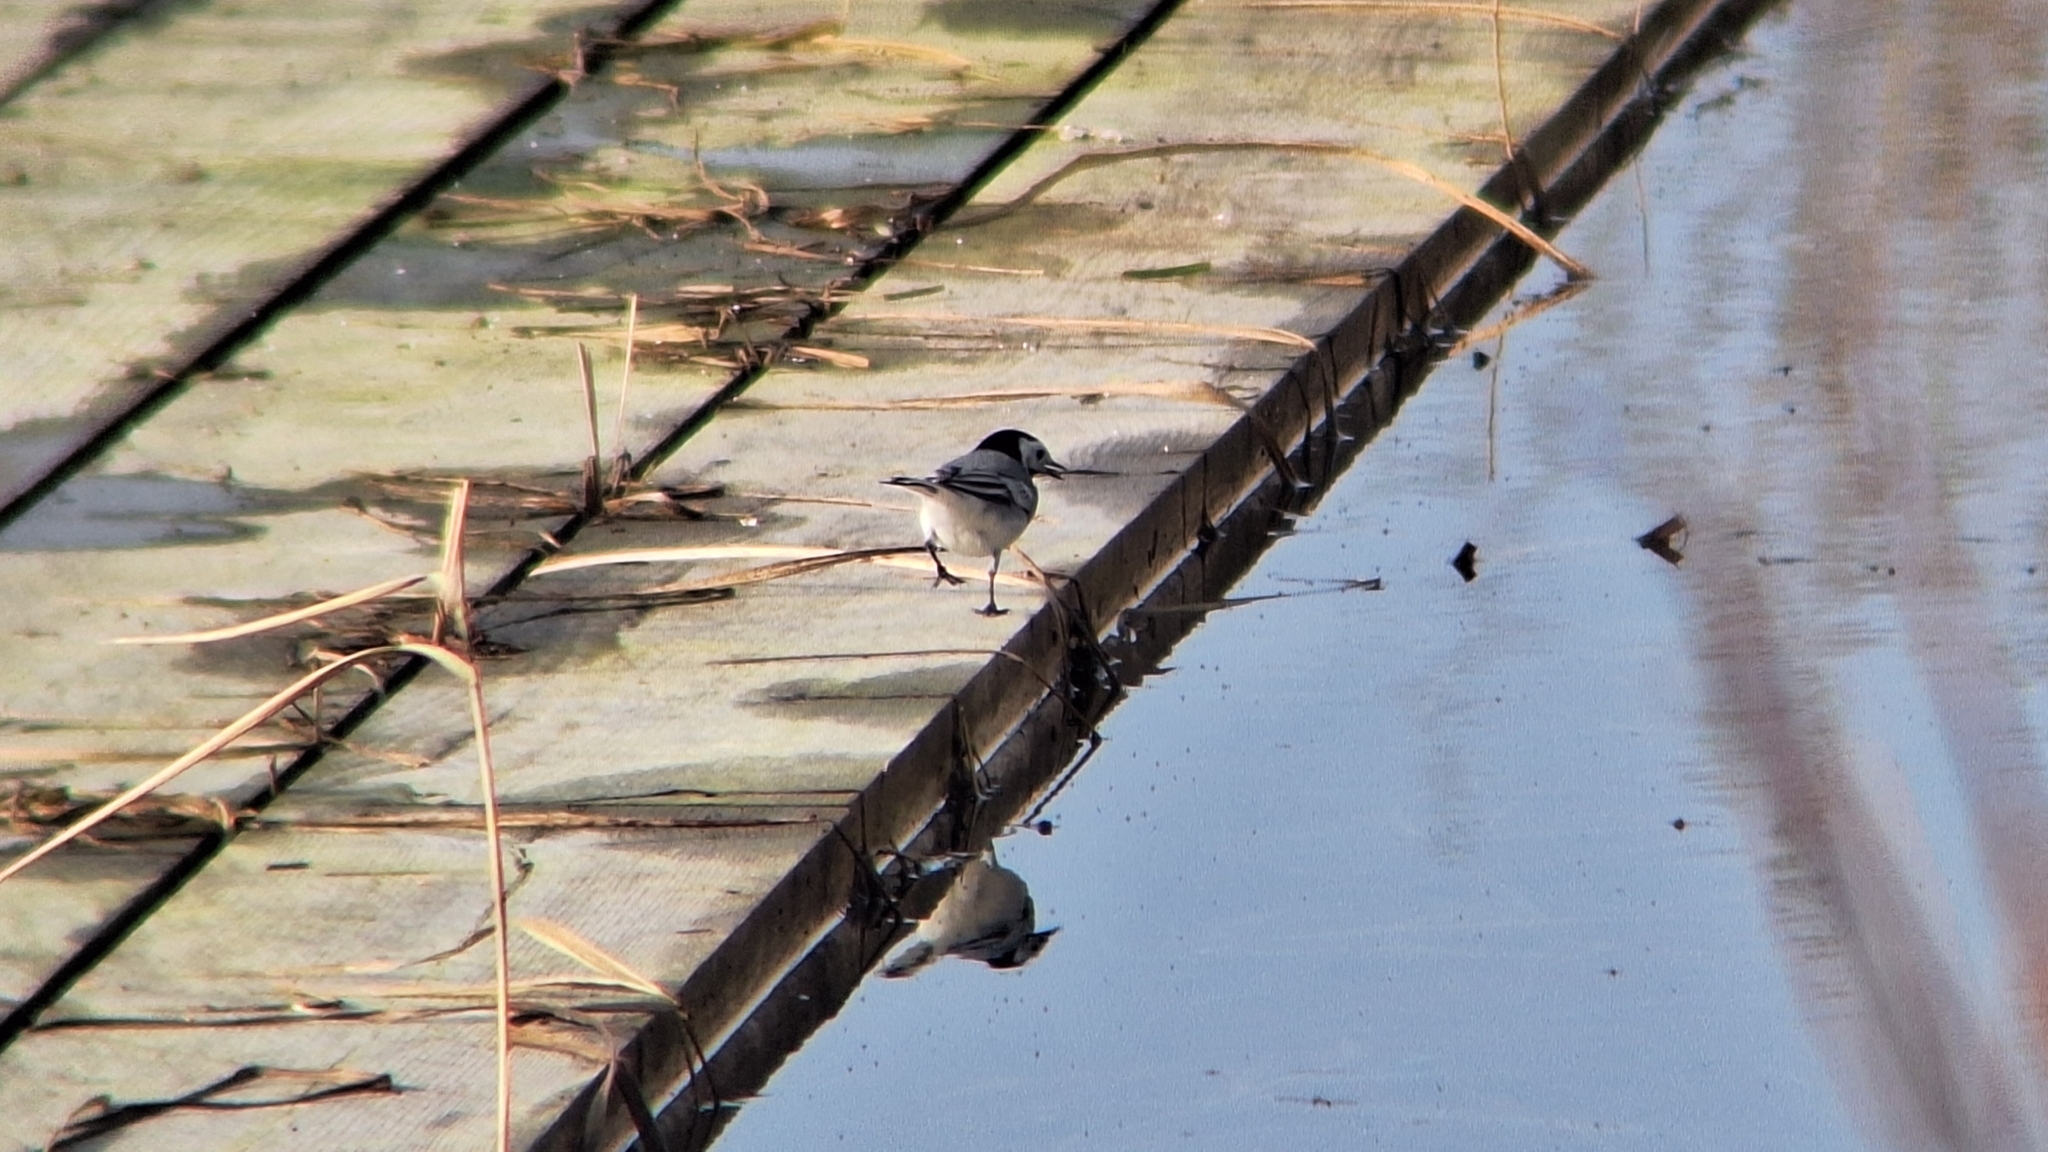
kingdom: Animalia
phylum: Chordata
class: Aves
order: Passeriformes
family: Motacillidae
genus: Motacilla
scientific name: Motacilla alba
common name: White wagtail
